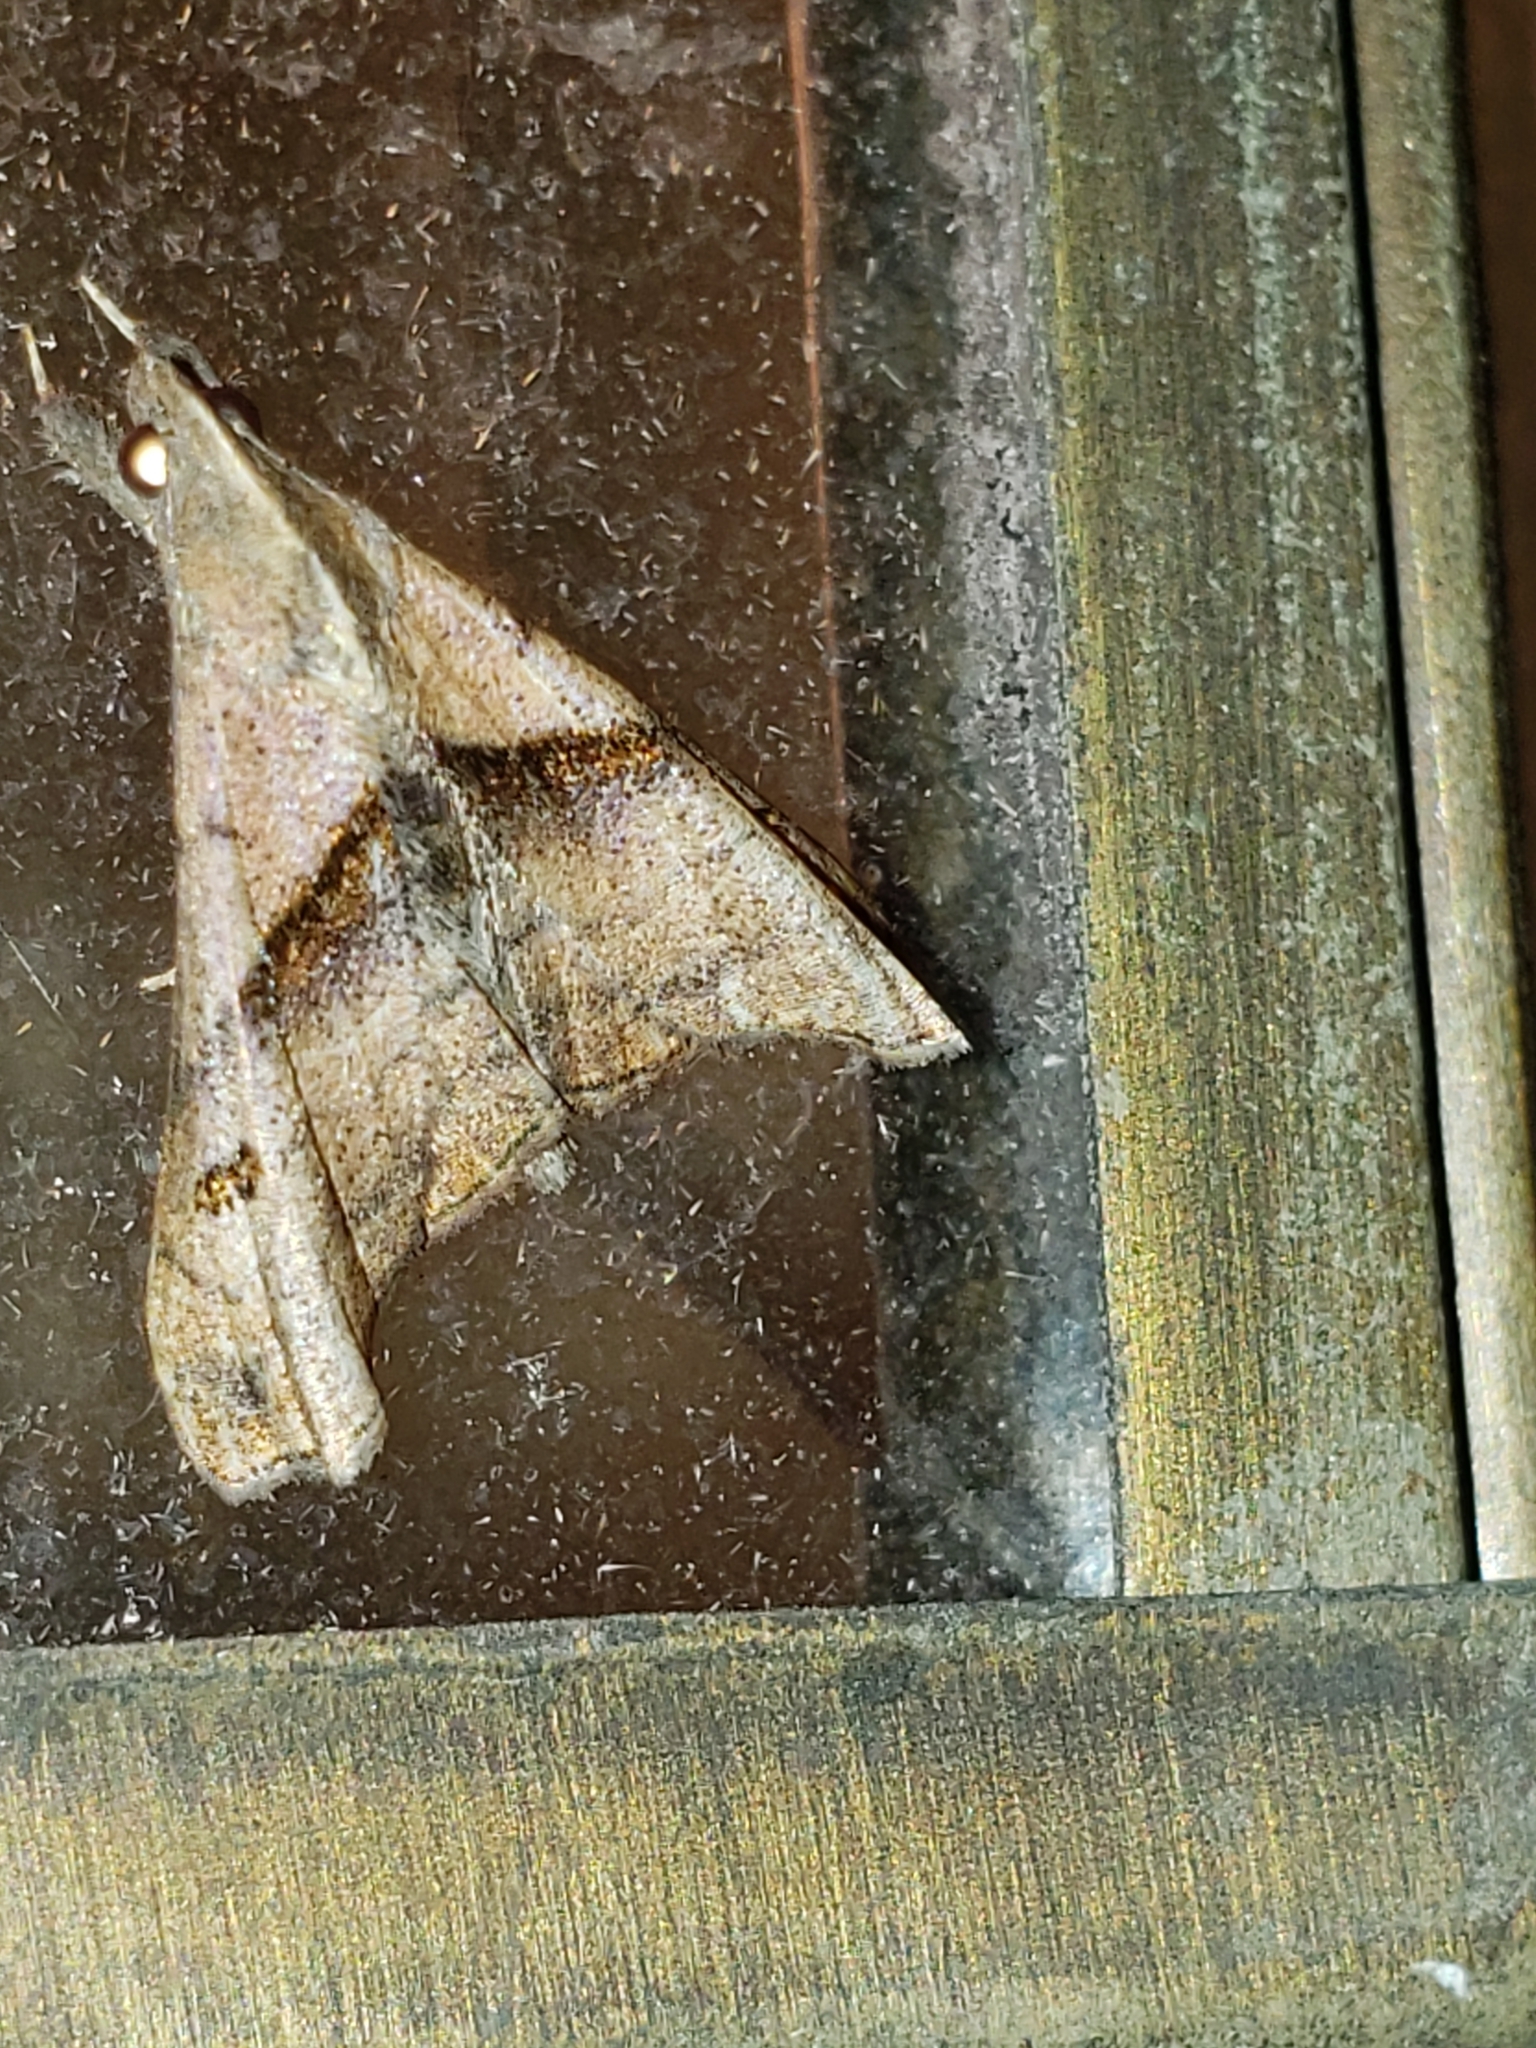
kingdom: Animalia
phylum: Arthropoda
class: Insecta
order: Lepidoptera
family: Erebidae
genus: Palthis
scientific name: Palthis angulalis
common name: Dark-spotted palthis moth
